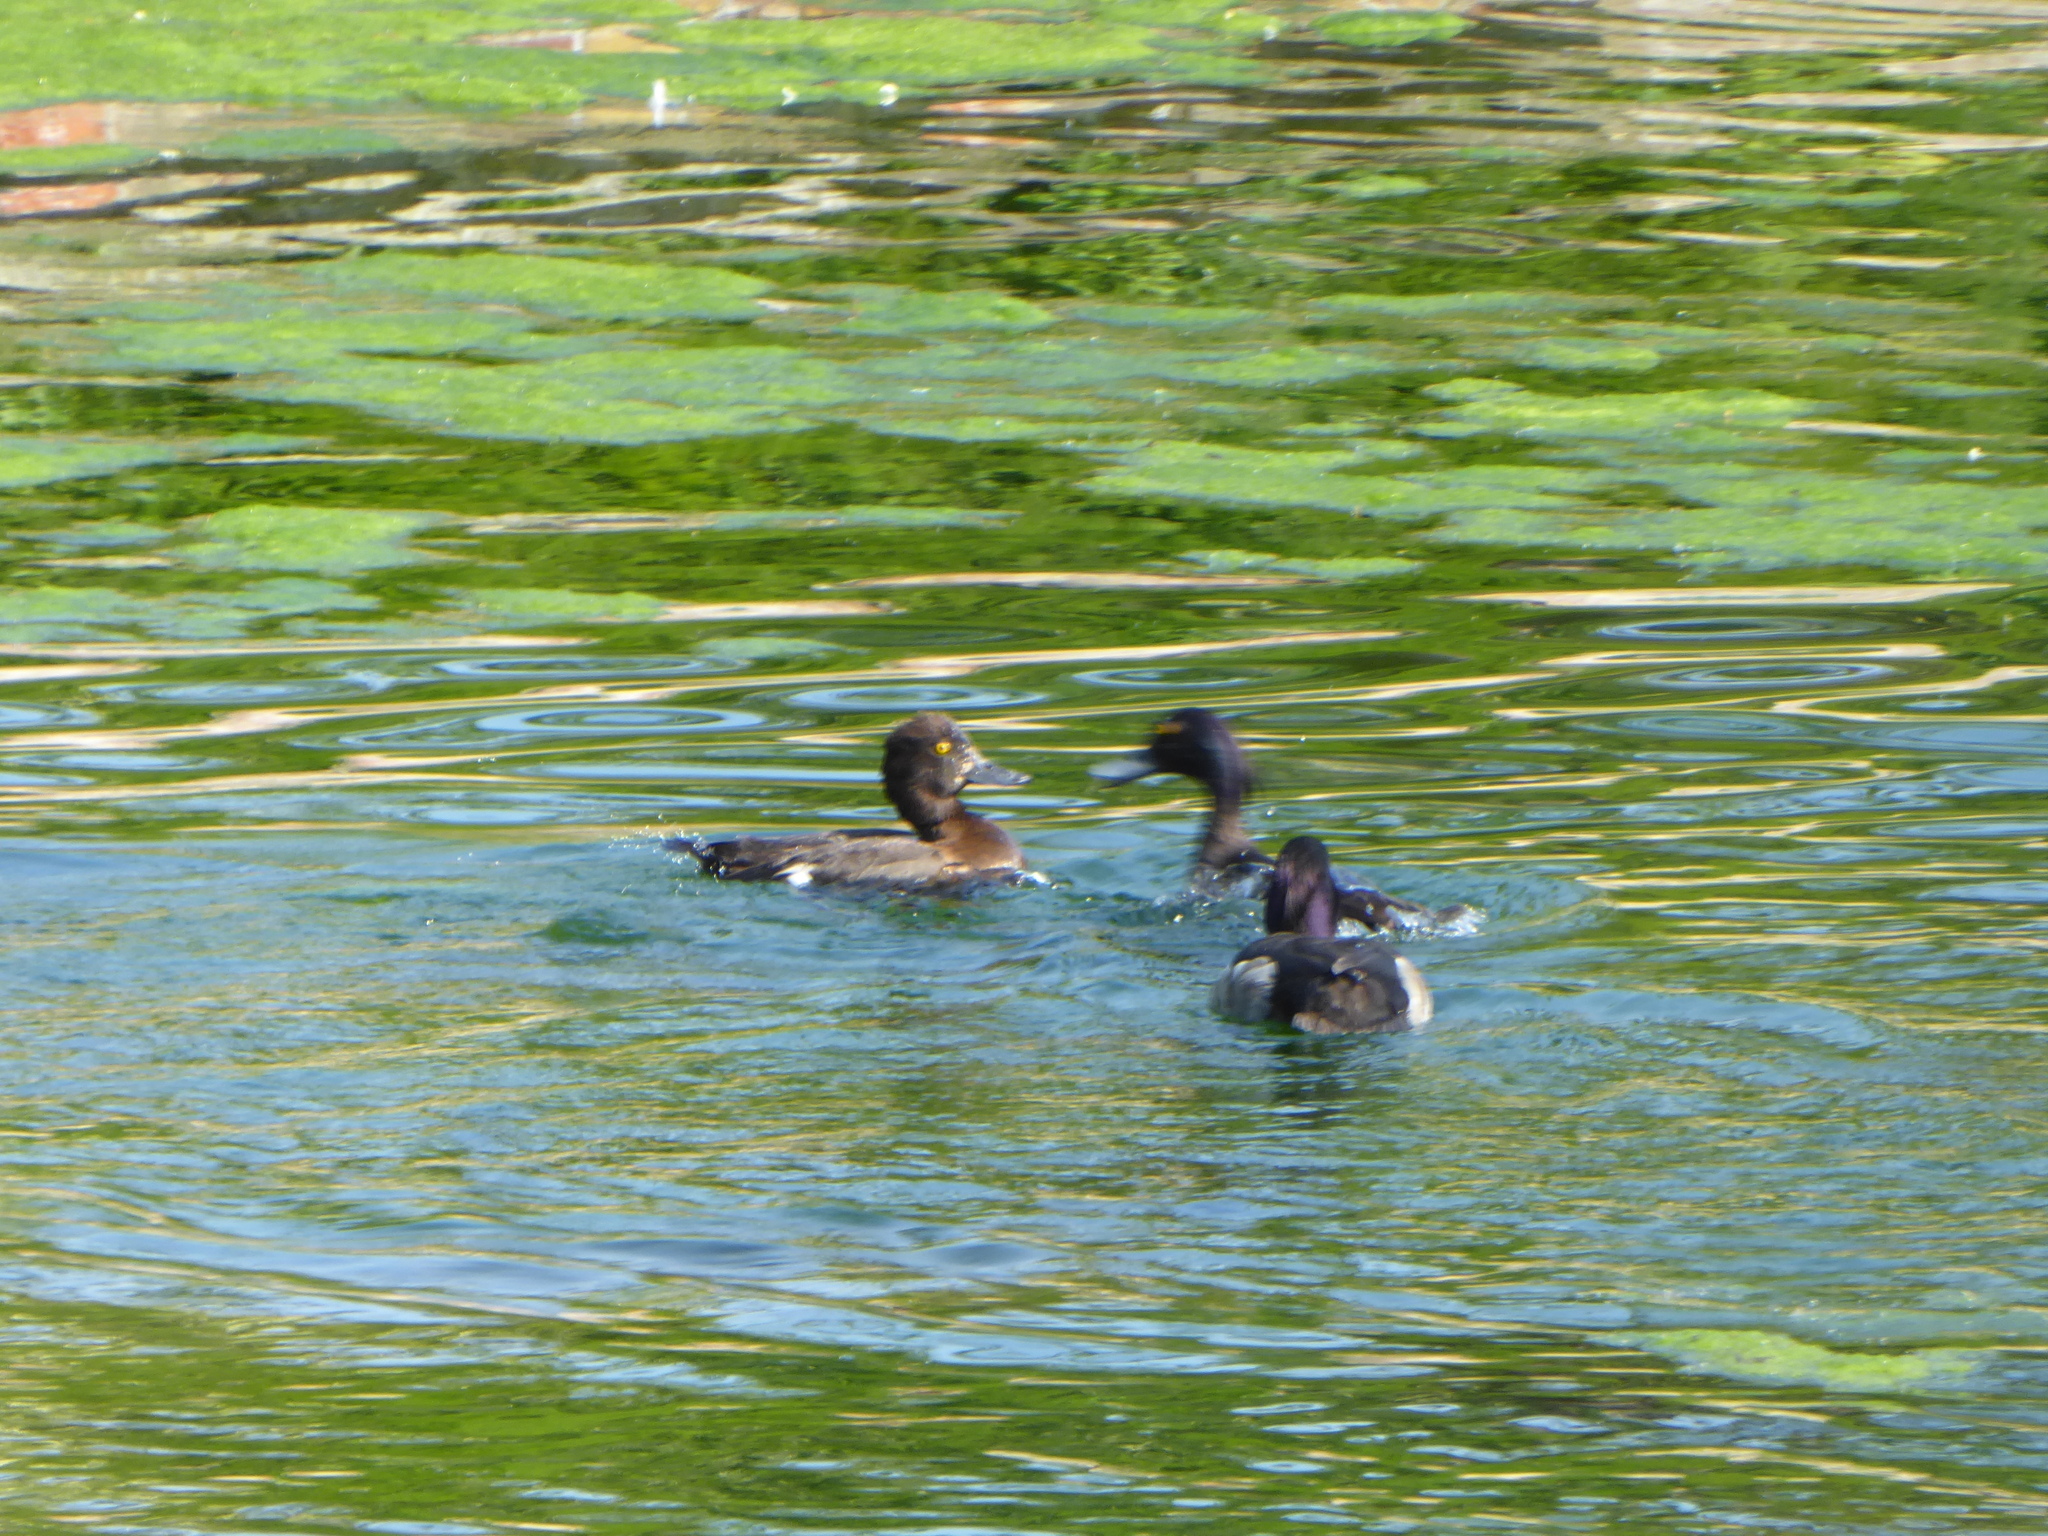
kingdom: Animalia
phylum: Chordata
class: Aves
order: Anseriformes
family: Anatidae
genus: Aythya
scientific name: Aythya fuligula
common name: Tufted duck
